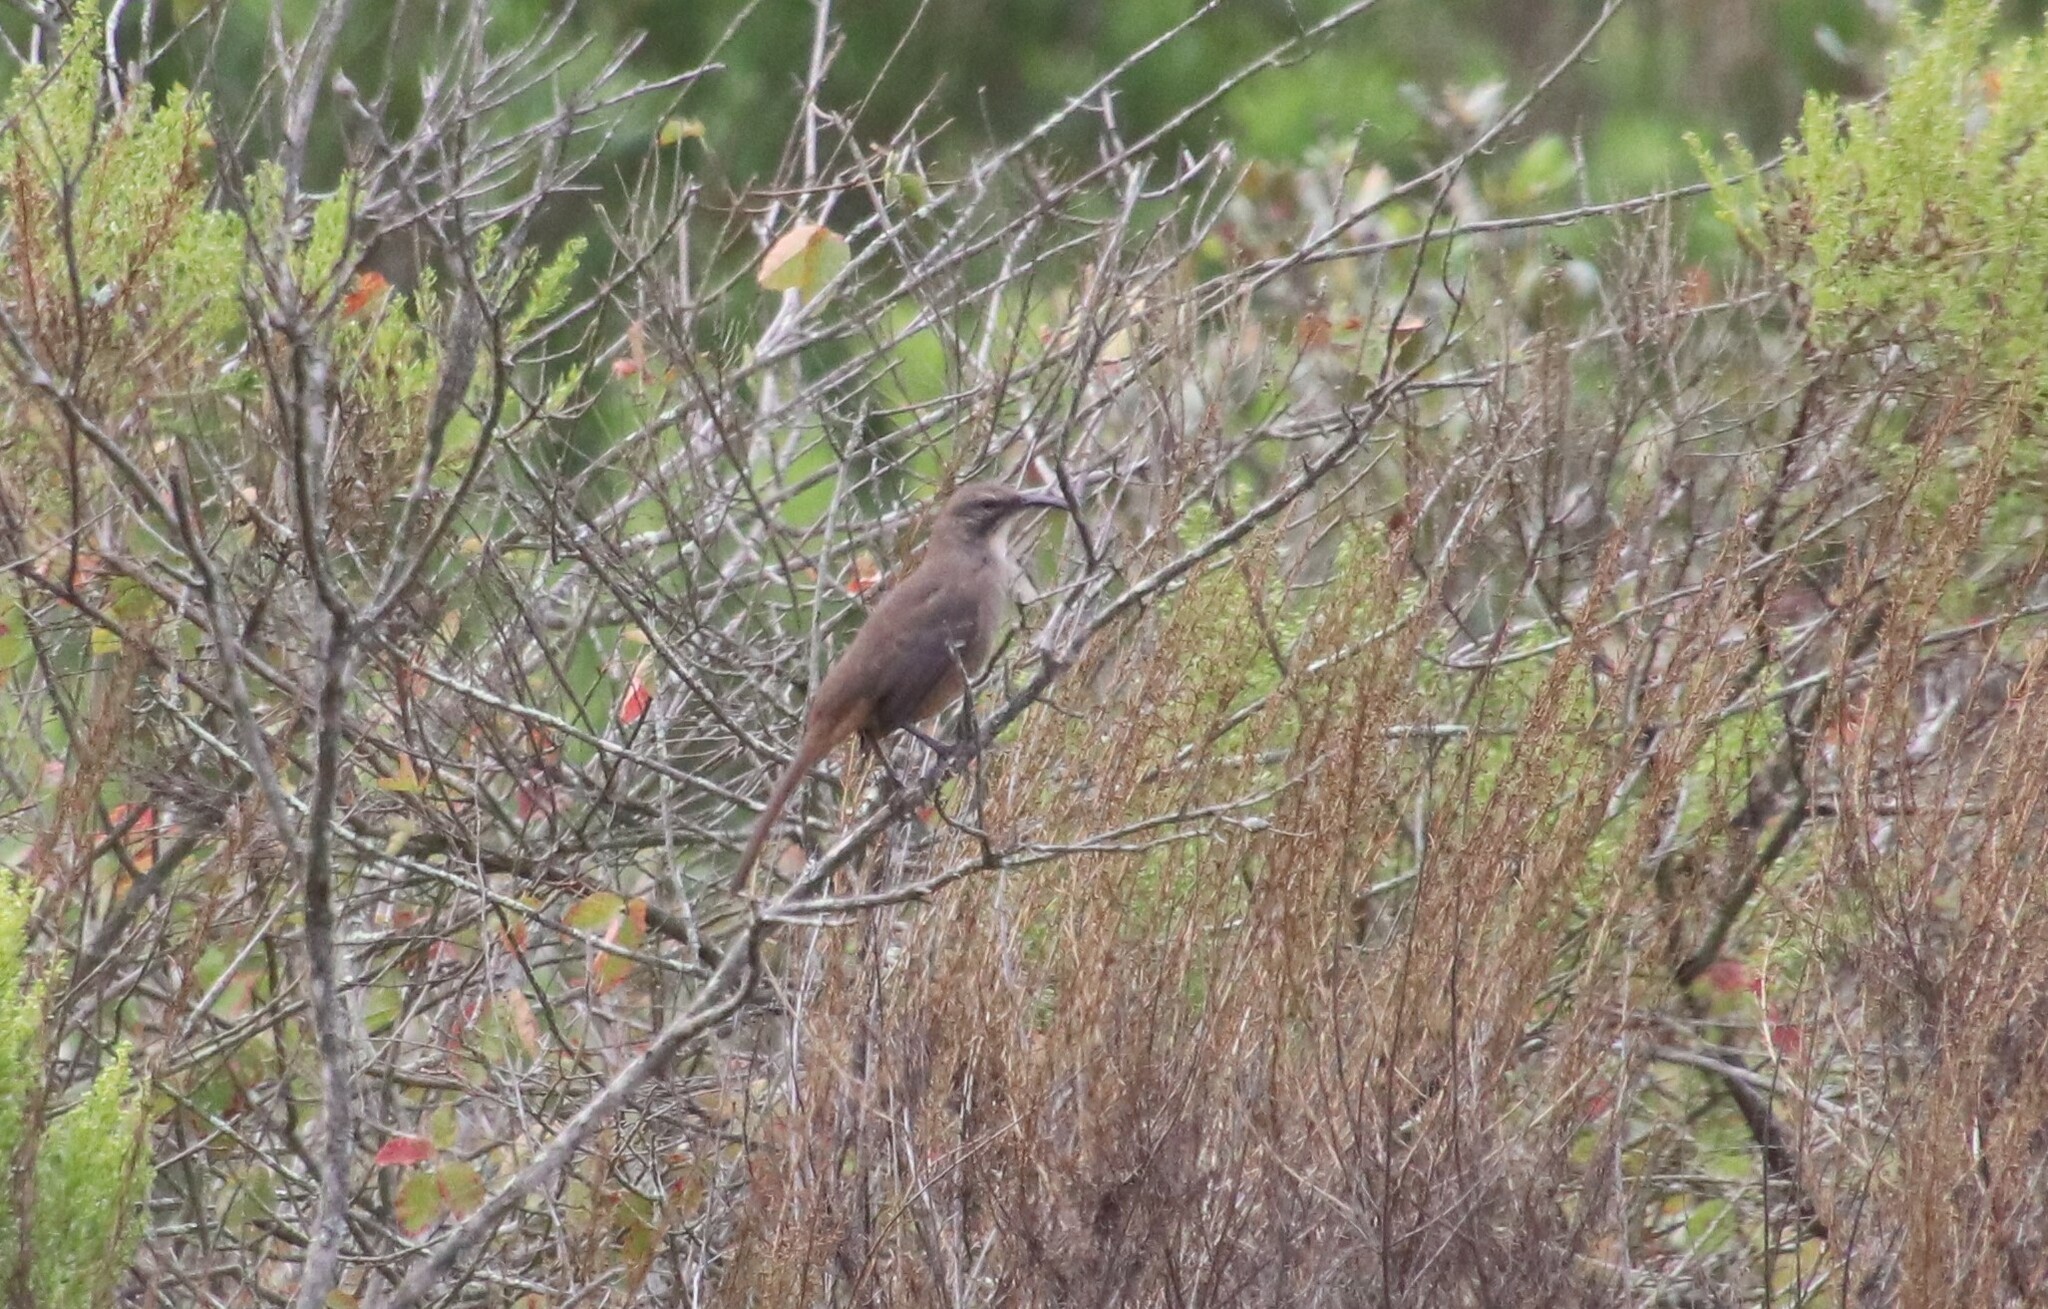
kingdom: Animalia
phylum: Chordata
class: Aves
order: Passeriformes
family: Mimidae
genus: Toxostoma
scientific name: Toxostoma redivivum
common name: California thrasher
